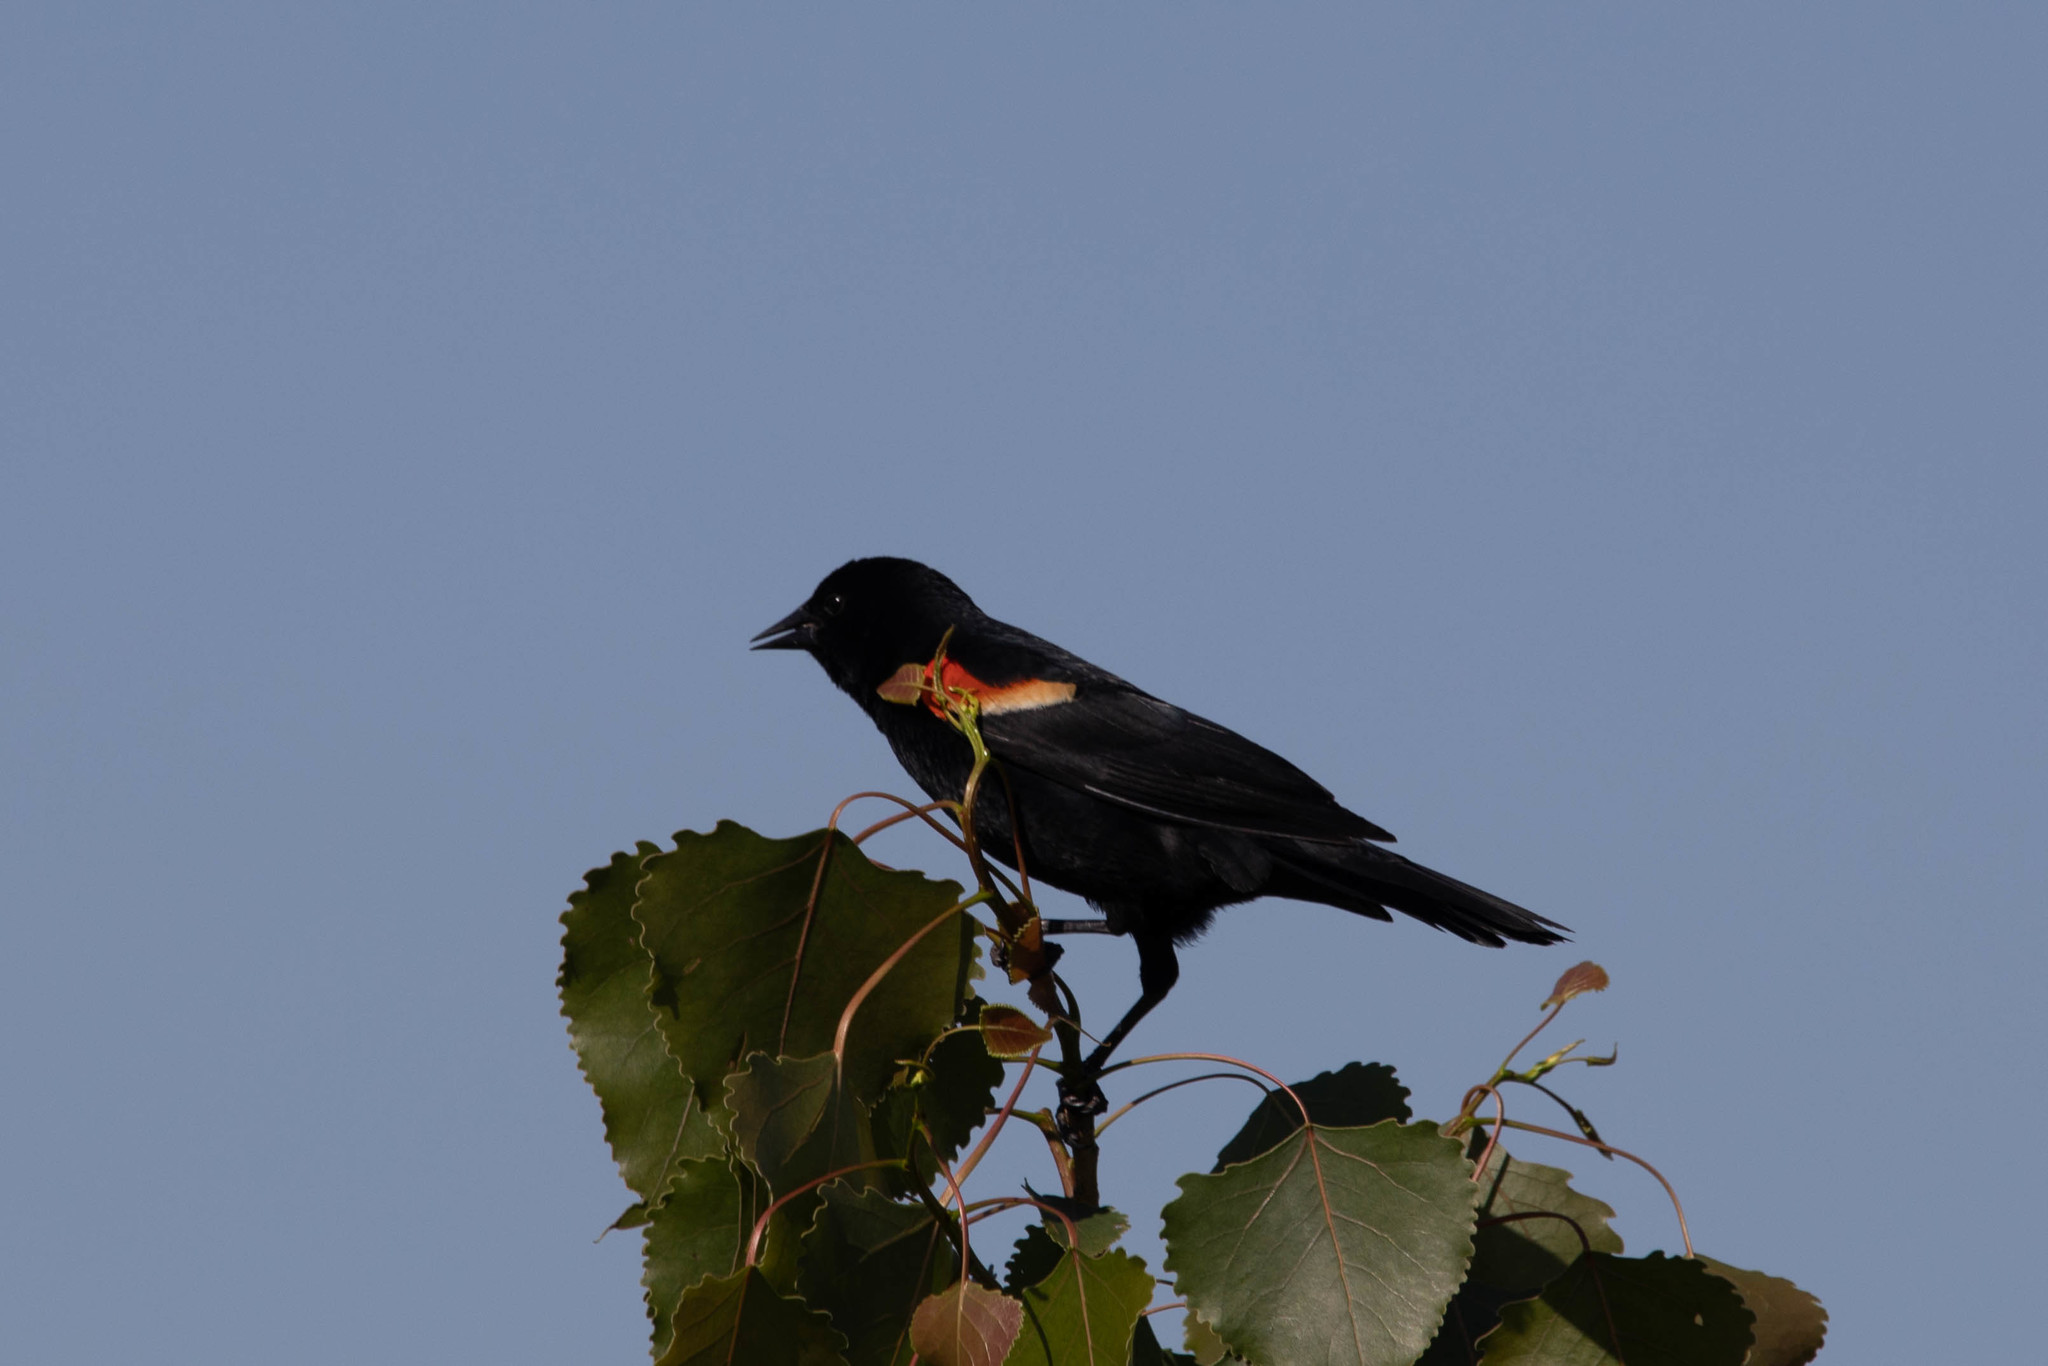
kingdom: Animalia
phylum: Chordata
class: Aves
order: Passeriformes
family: Icteridae
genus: Agelaius
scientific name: Agelaius phoeniceus
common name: Red-winged blackbird
